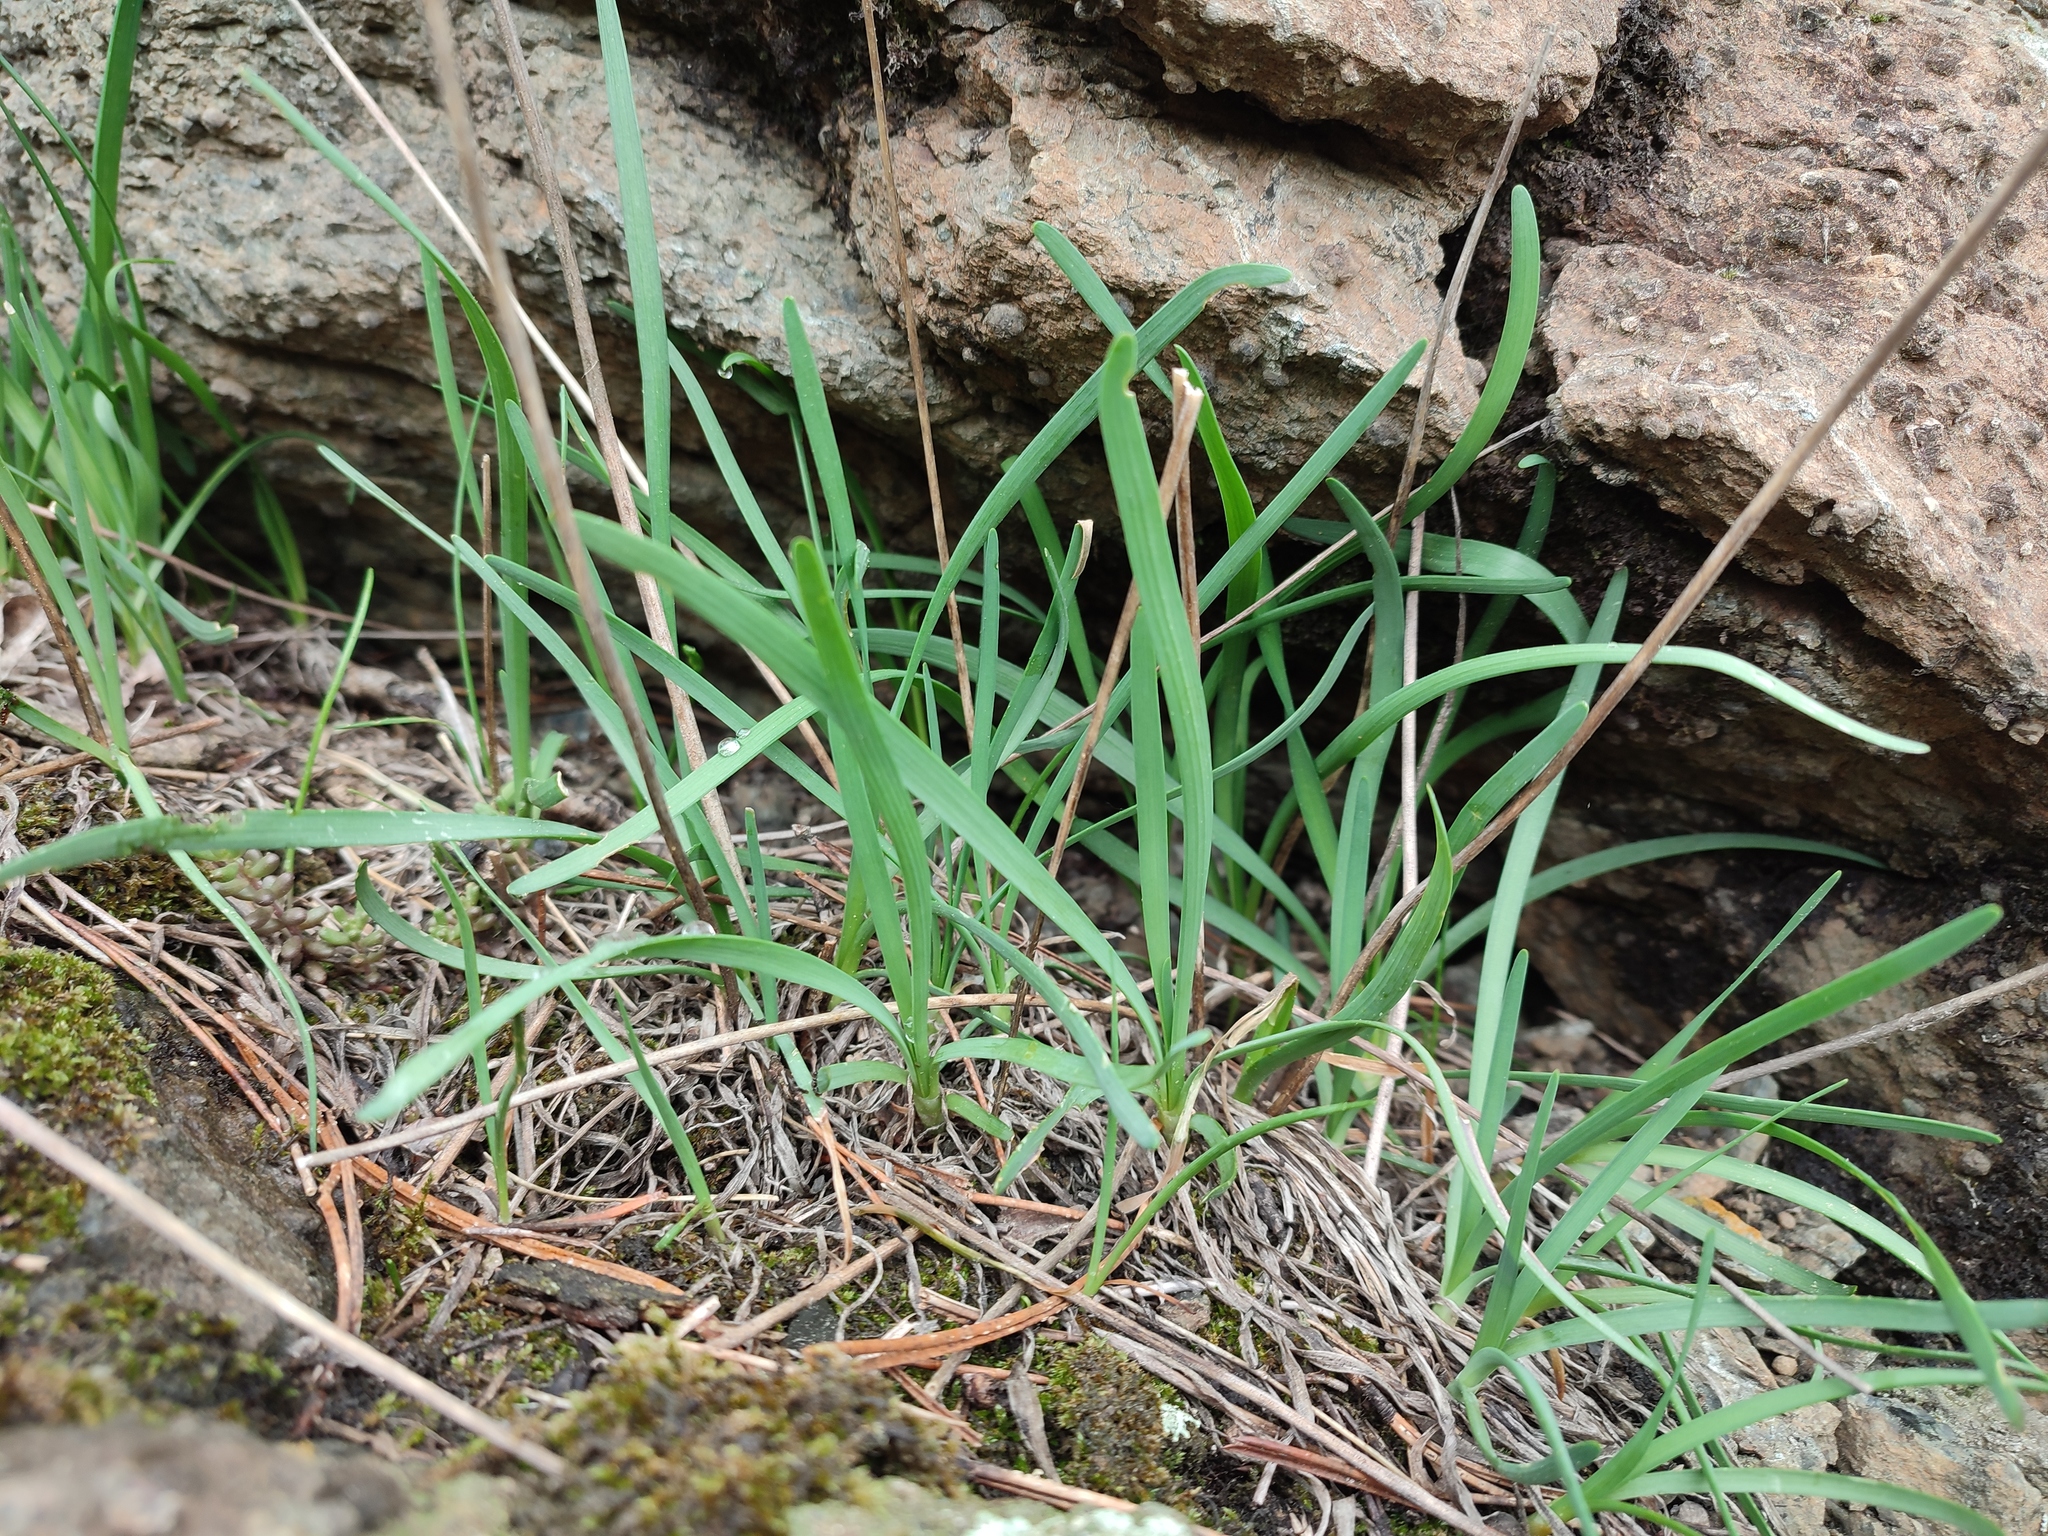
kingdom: Plantae
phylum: Tracheophyta
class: Liliopsida
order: Asparagales
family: Amaryllidaceae
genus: Allium
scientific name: Allium lusitanicum
